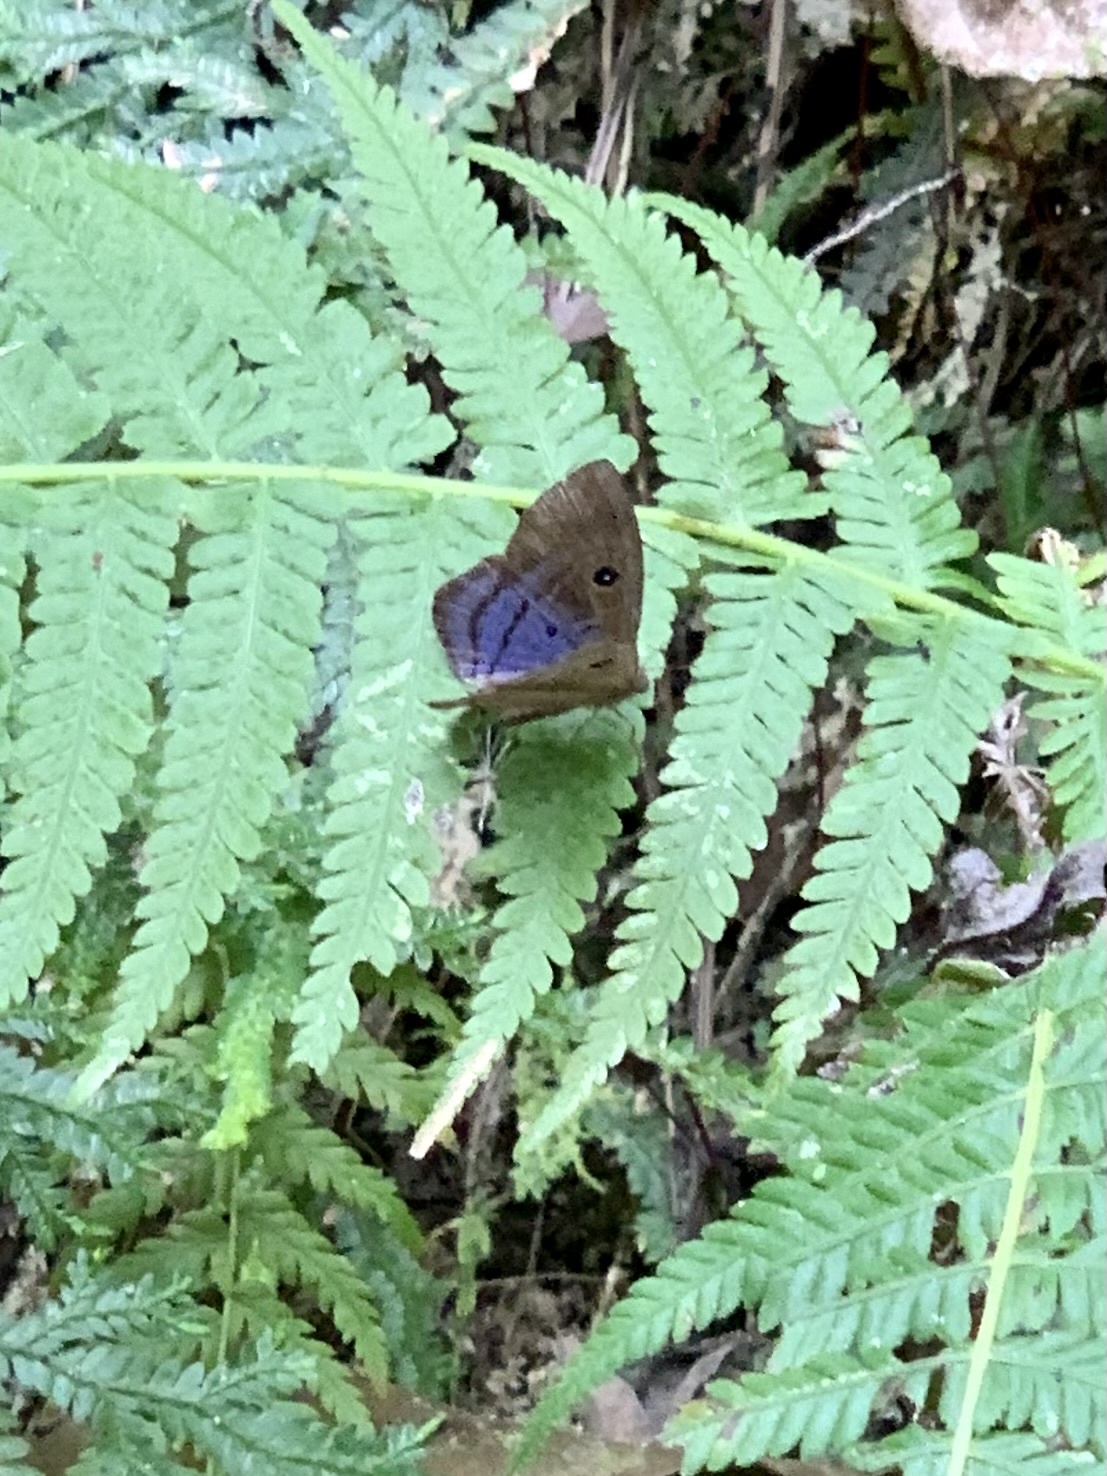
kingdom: Animalia
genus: Mesosemia
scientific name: Mesosemia
